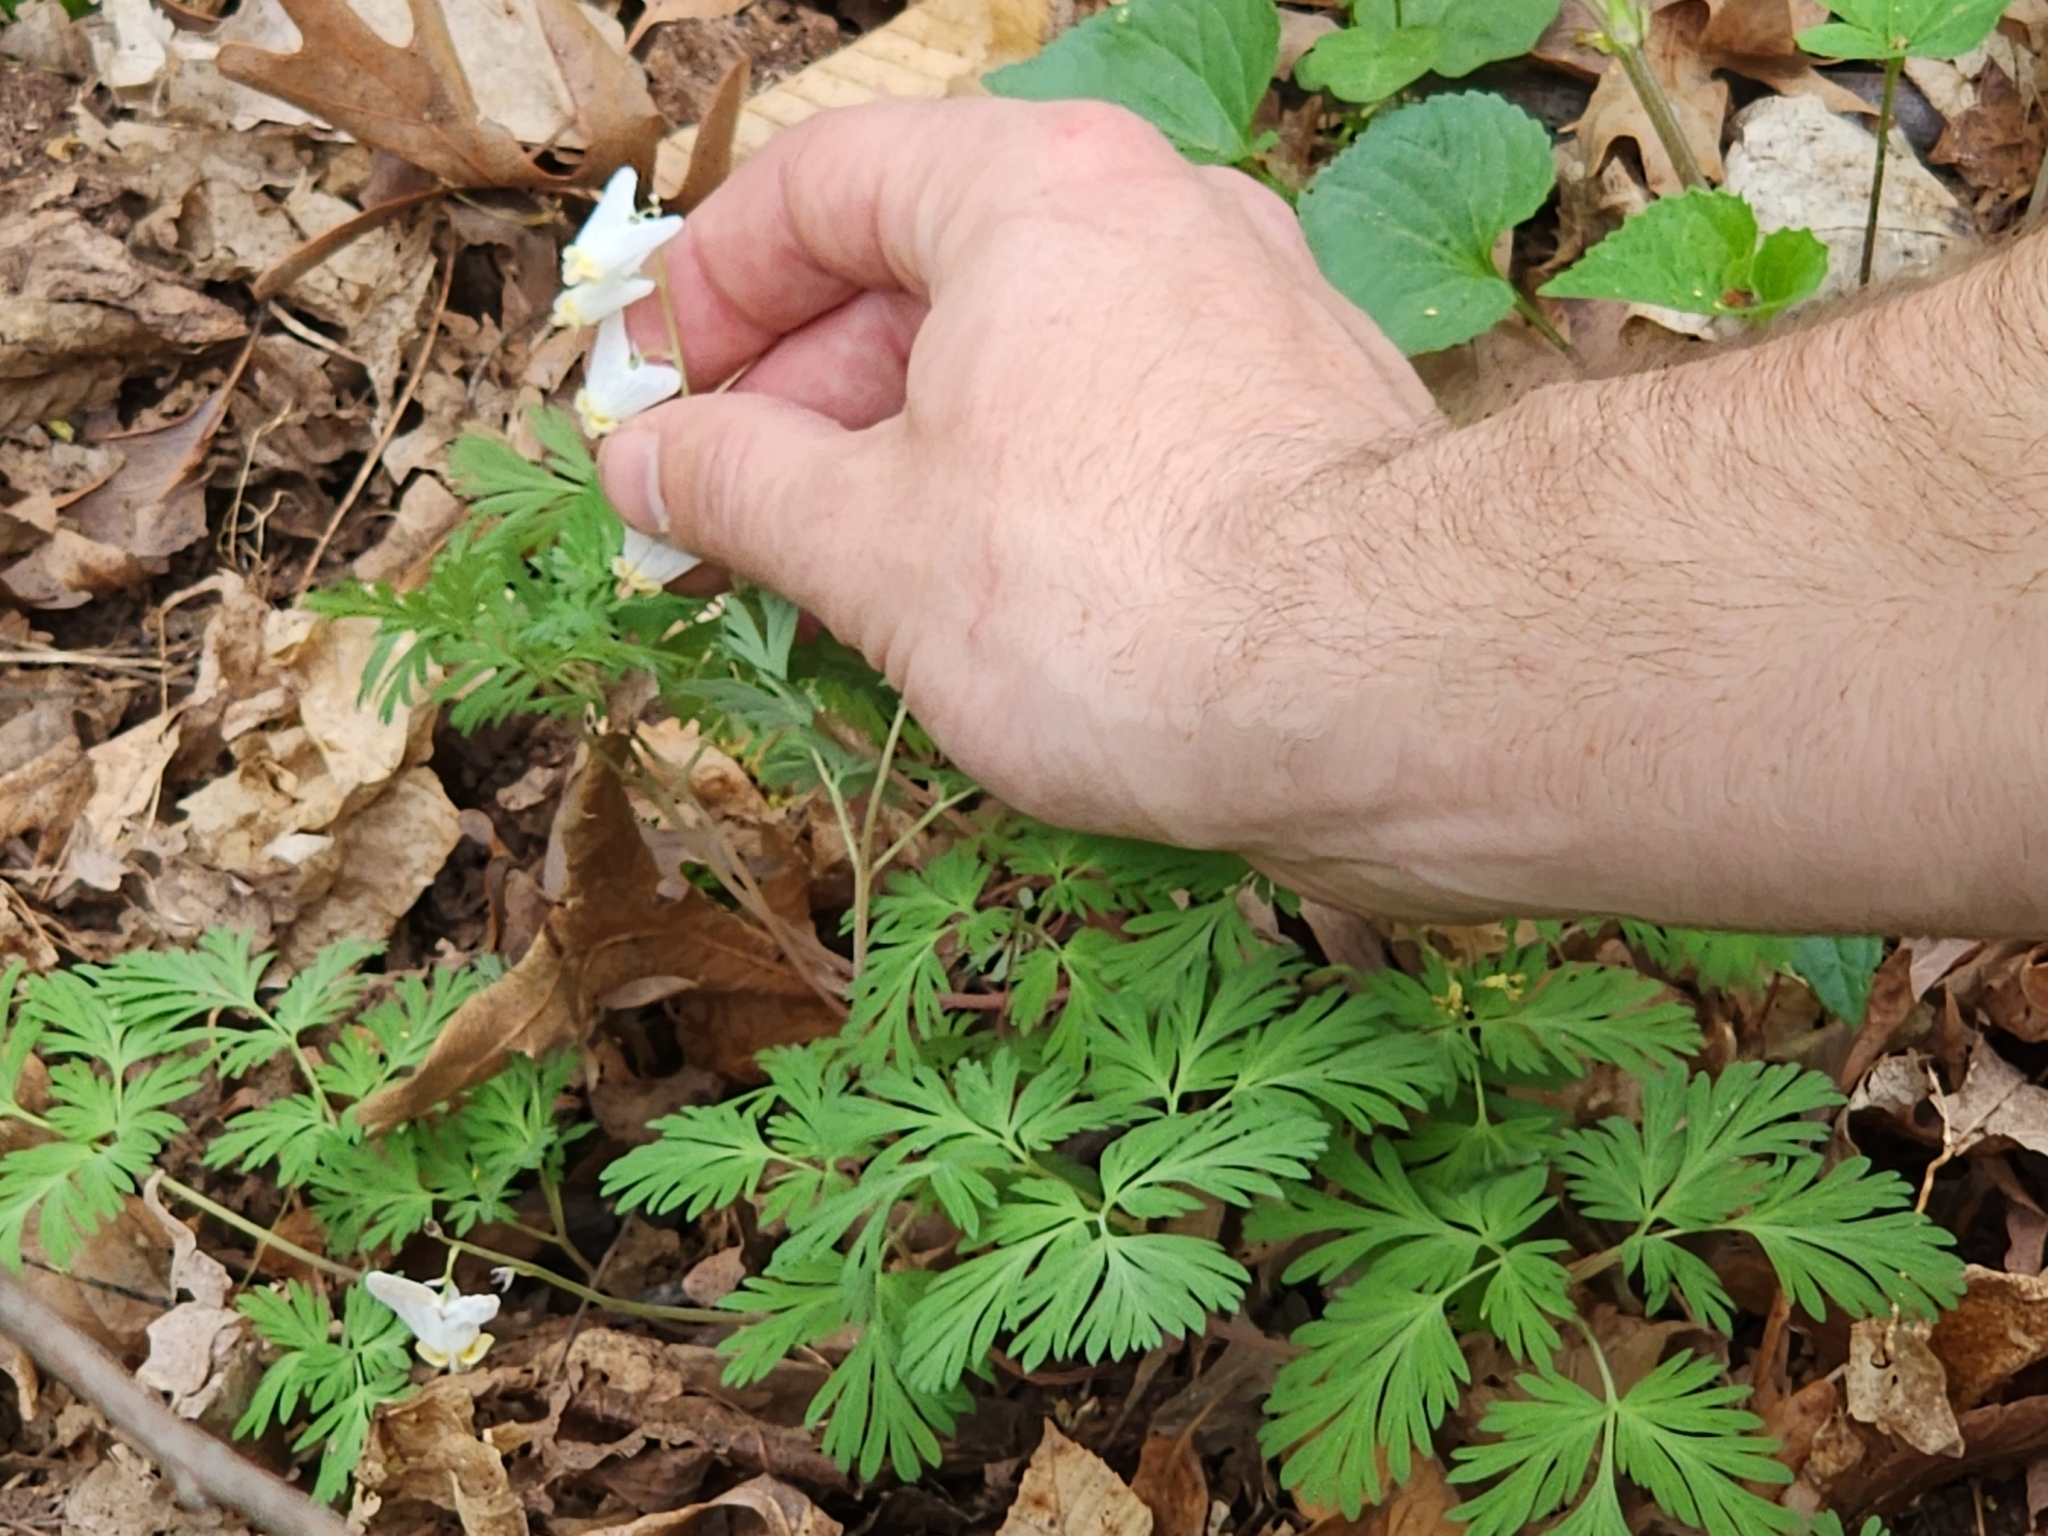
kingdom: Plantae
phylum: Tracheophyta
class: Magnoliopsida
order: Ranunculales
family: Papaveraceae
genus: Dicentra
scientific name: Dicentra cucullaria
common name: Dutchman's breeches
